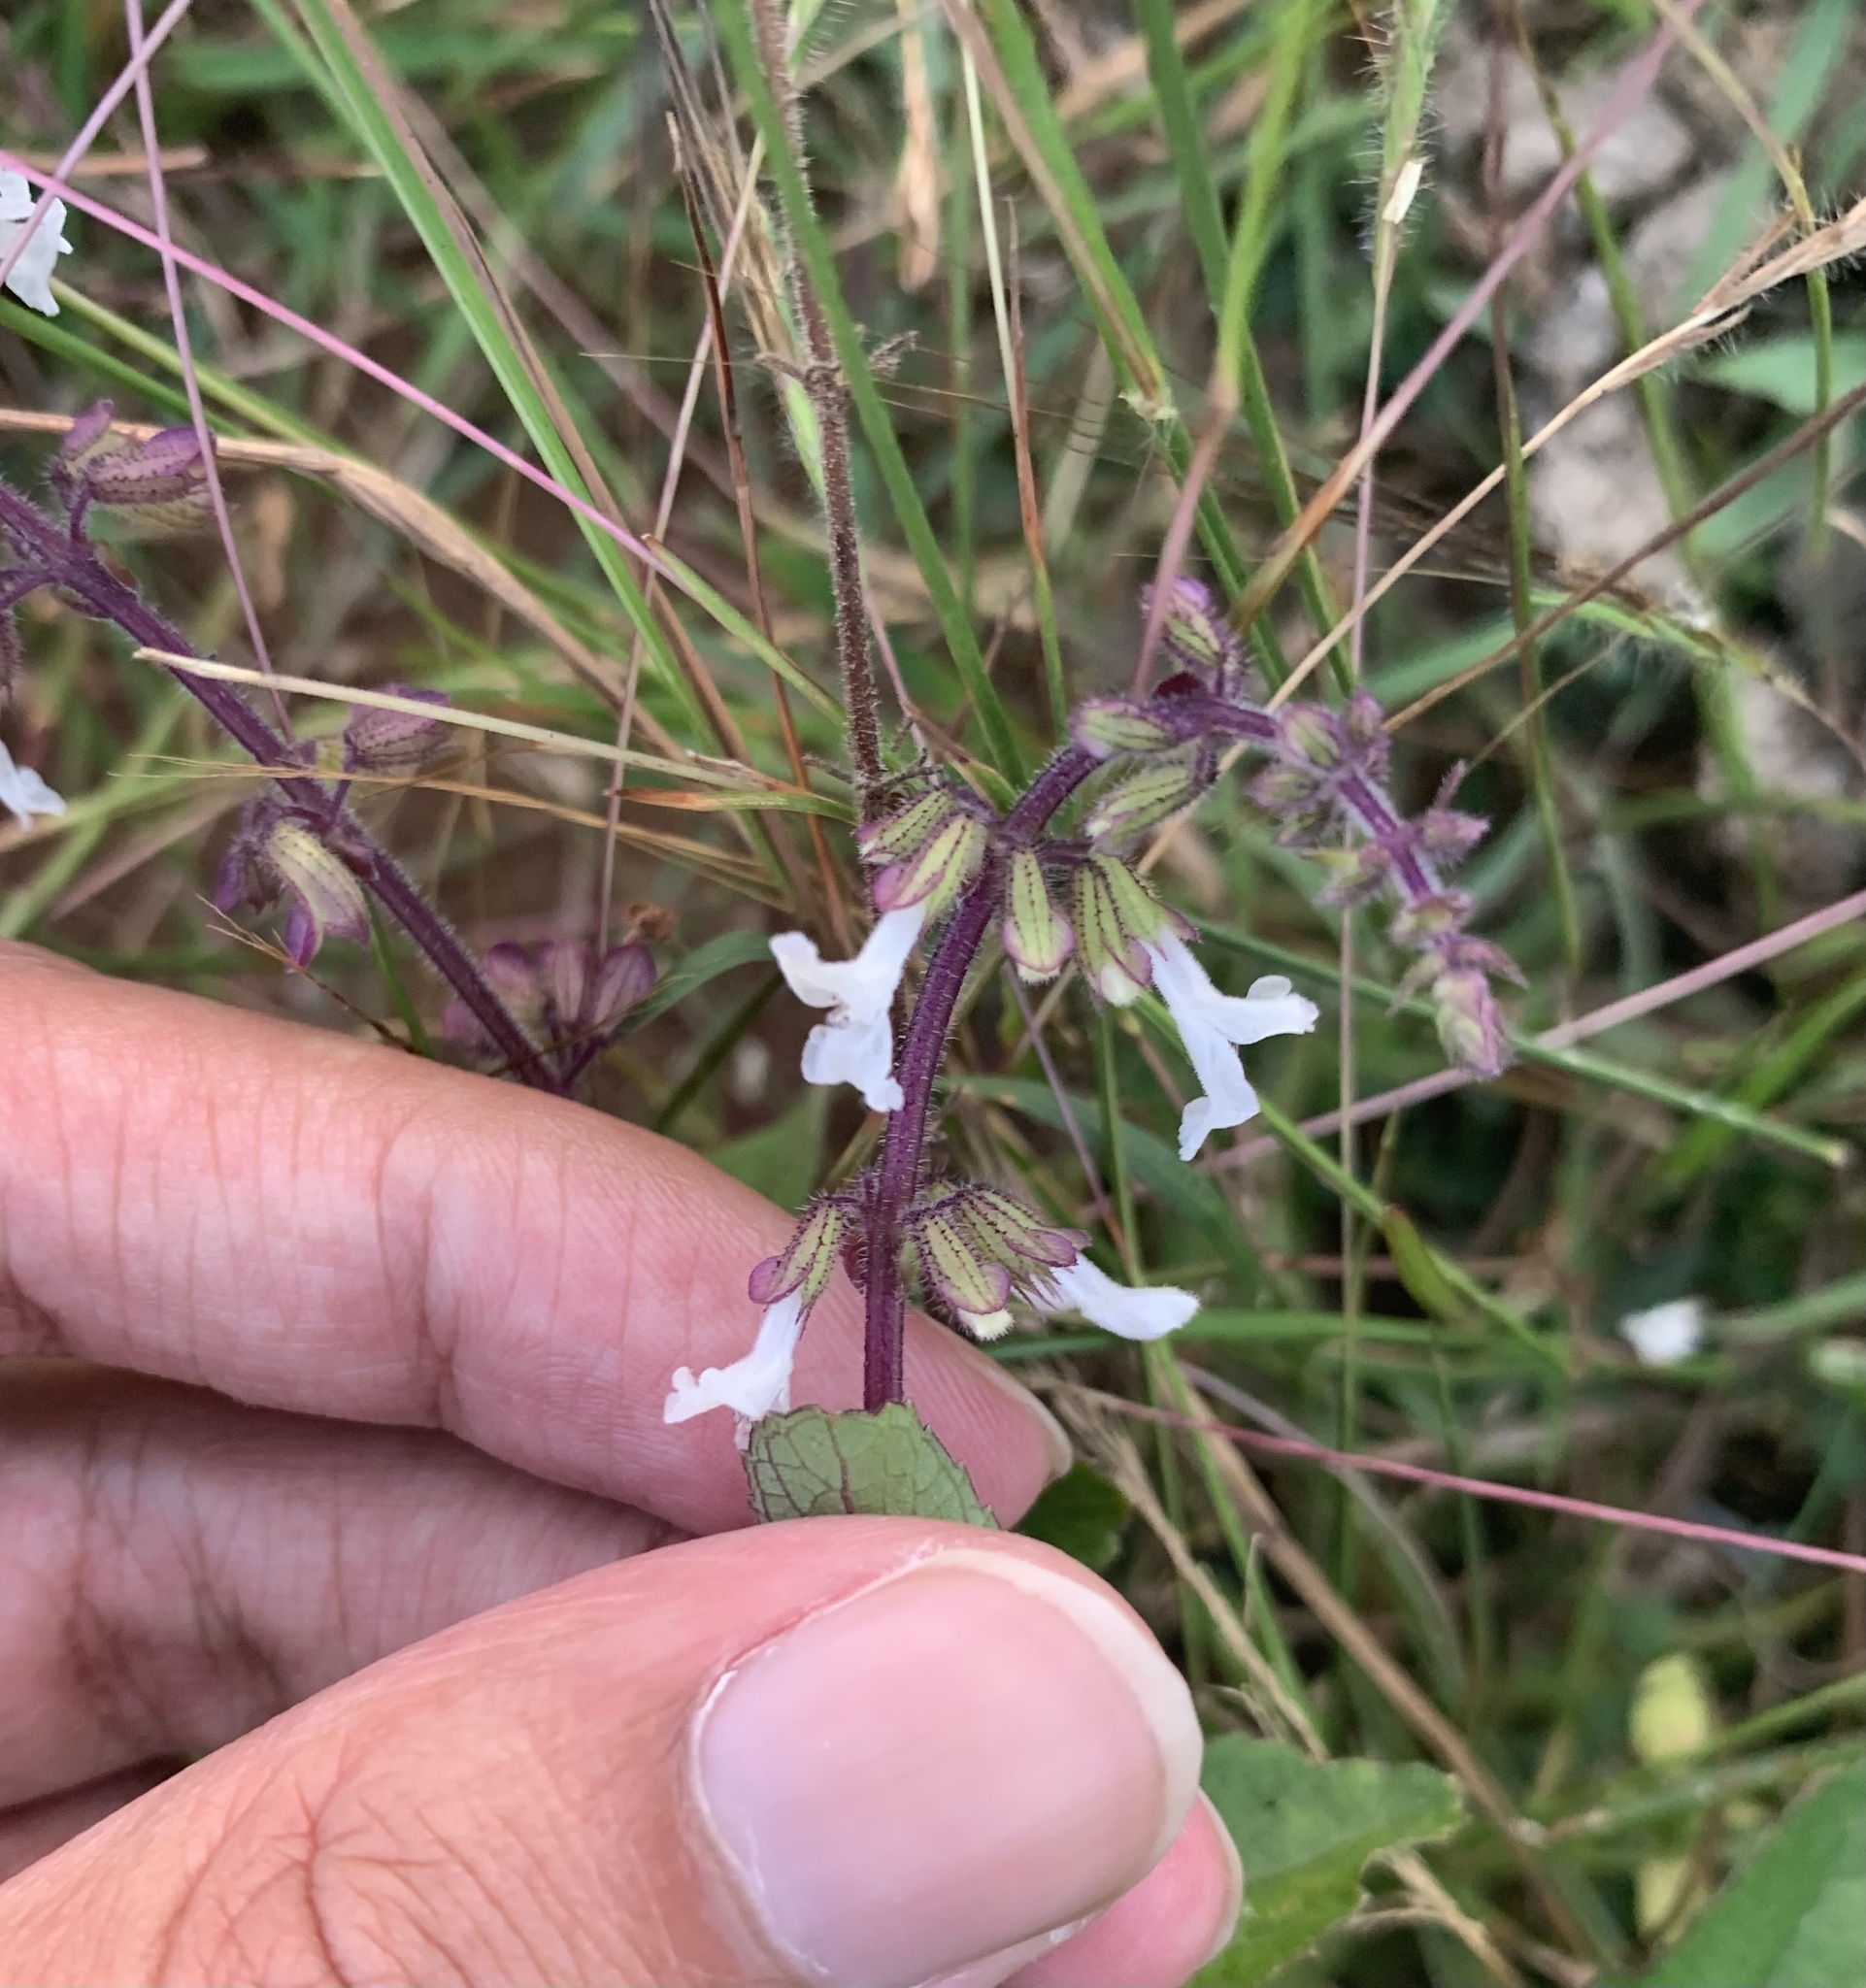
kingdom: Plantae
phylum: Tracheophyta
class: Magnoliopsida
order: Lamiales
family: Lamiaceae
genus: Orthosiphon
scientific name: Orthosiphon thymiflorus
